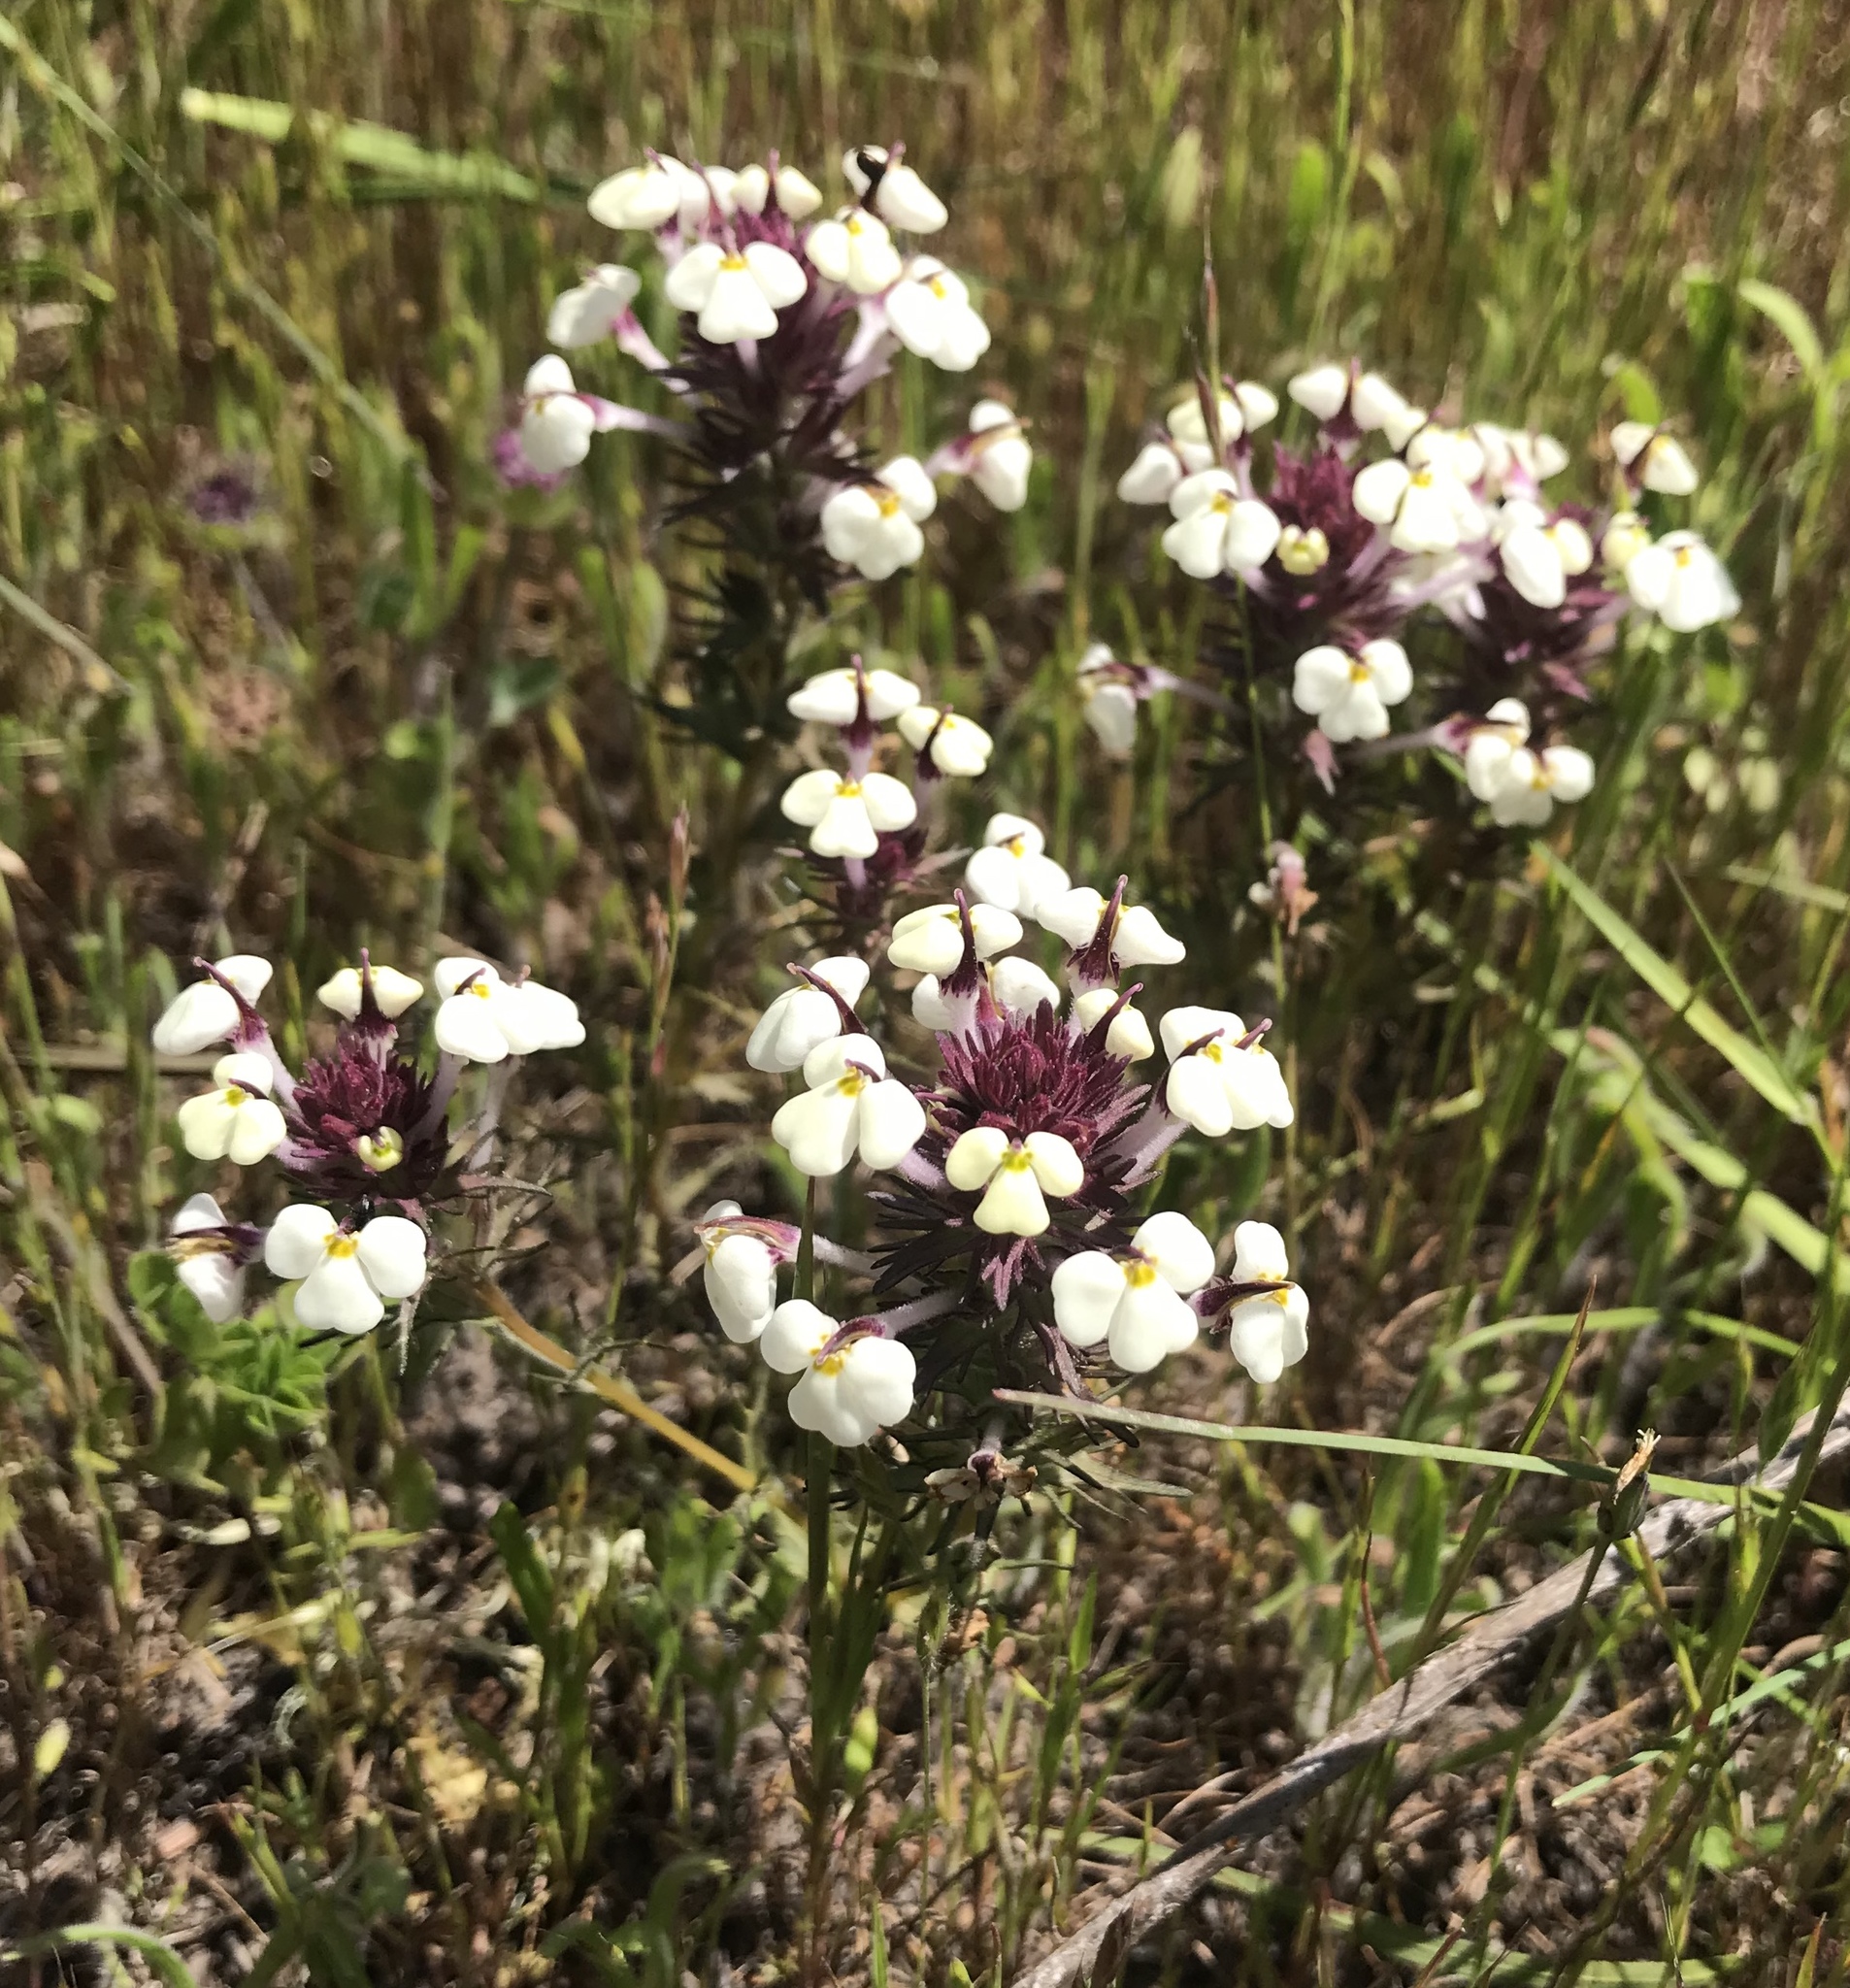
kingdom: Plantae
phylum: Tracheophyta
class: Magnoliopsida
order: Lamiales
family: Orobanchaceae
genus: Triphysaria
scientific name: Triphysaria eriantha
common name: Johnny-tuck
